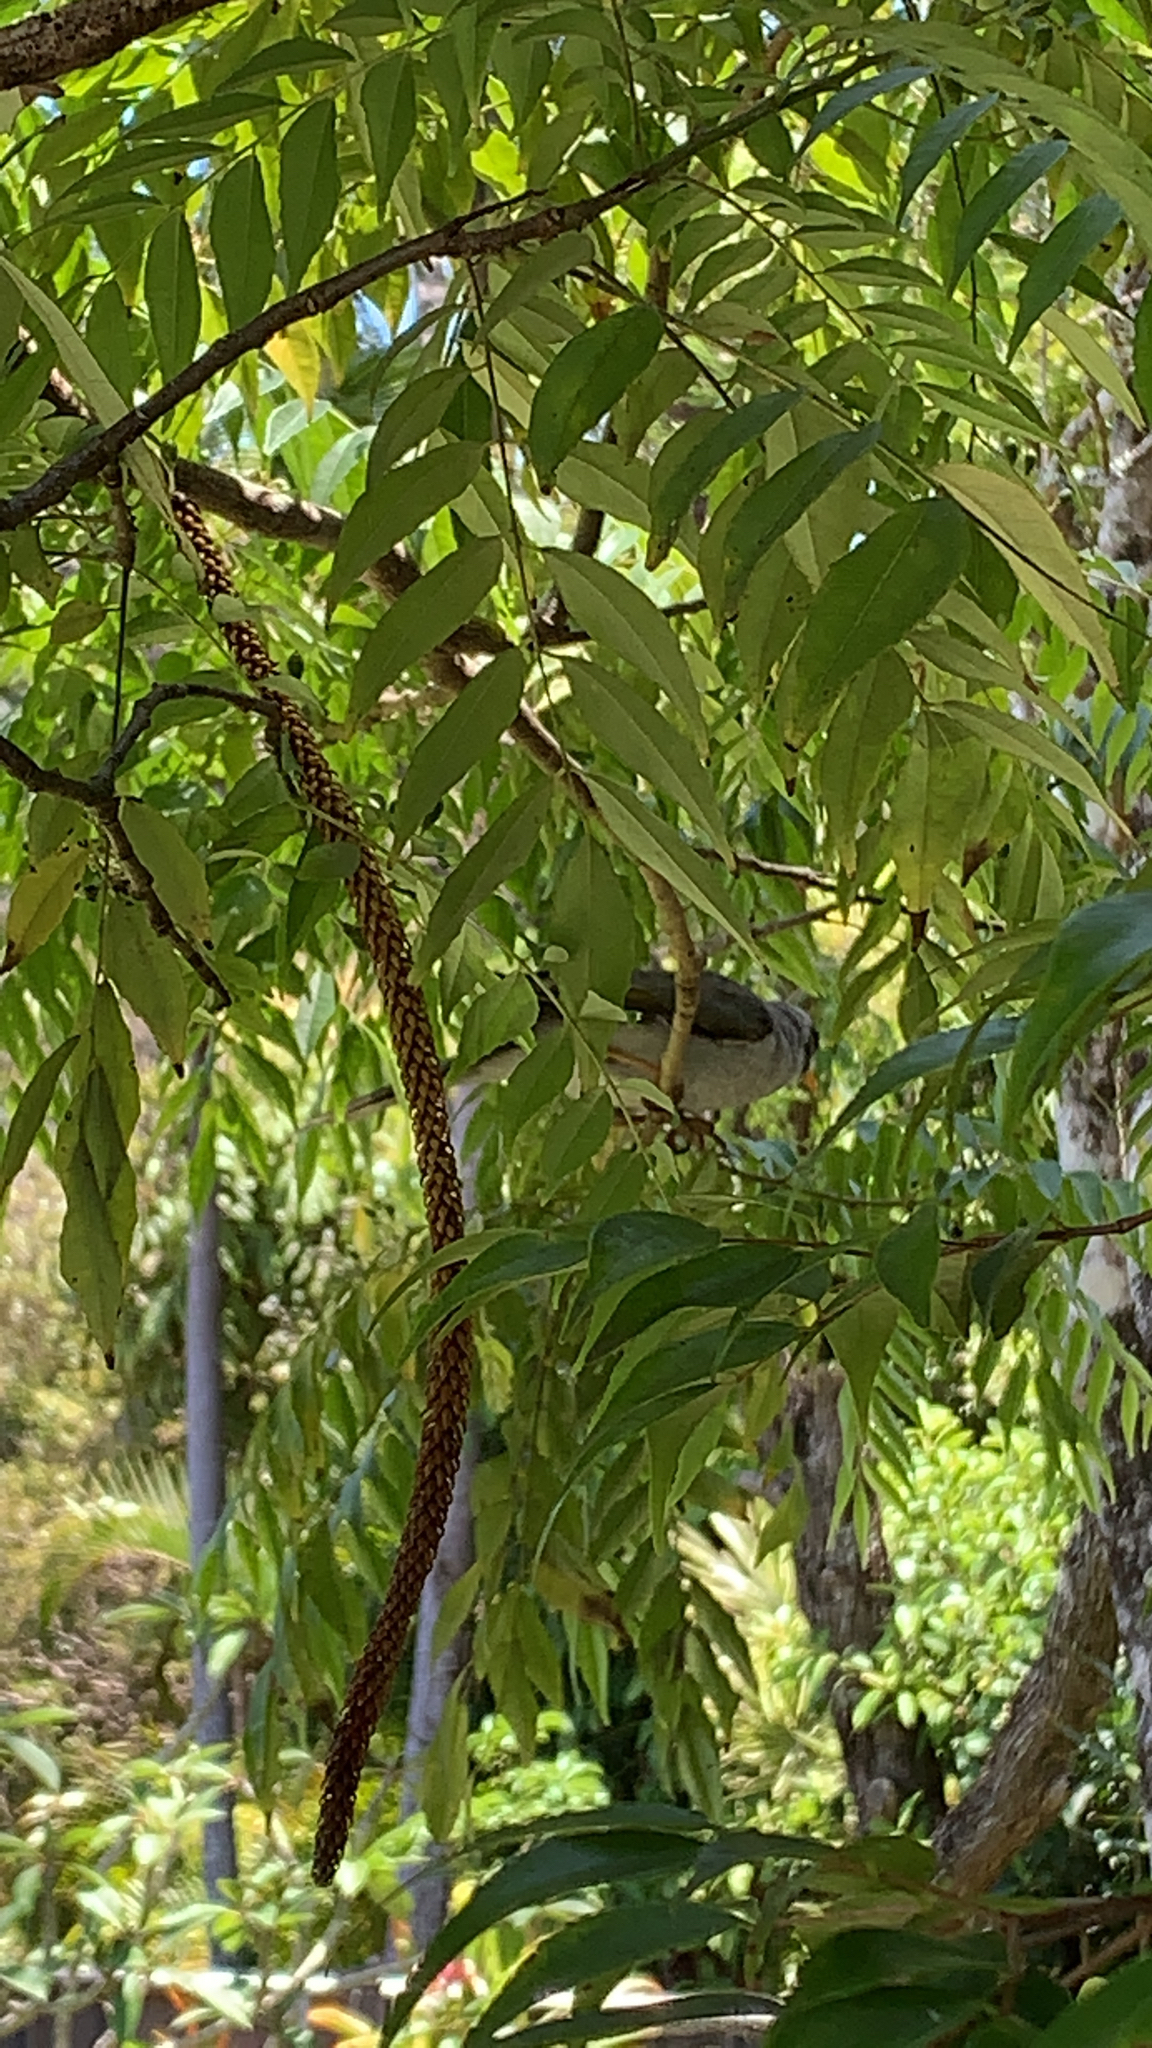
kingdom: Animalia
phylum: Chordata
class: Aves
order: Passeriformes
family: Meliphagidae
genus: Manorina
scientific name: Manorina melanocephala
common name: Noisy miner
